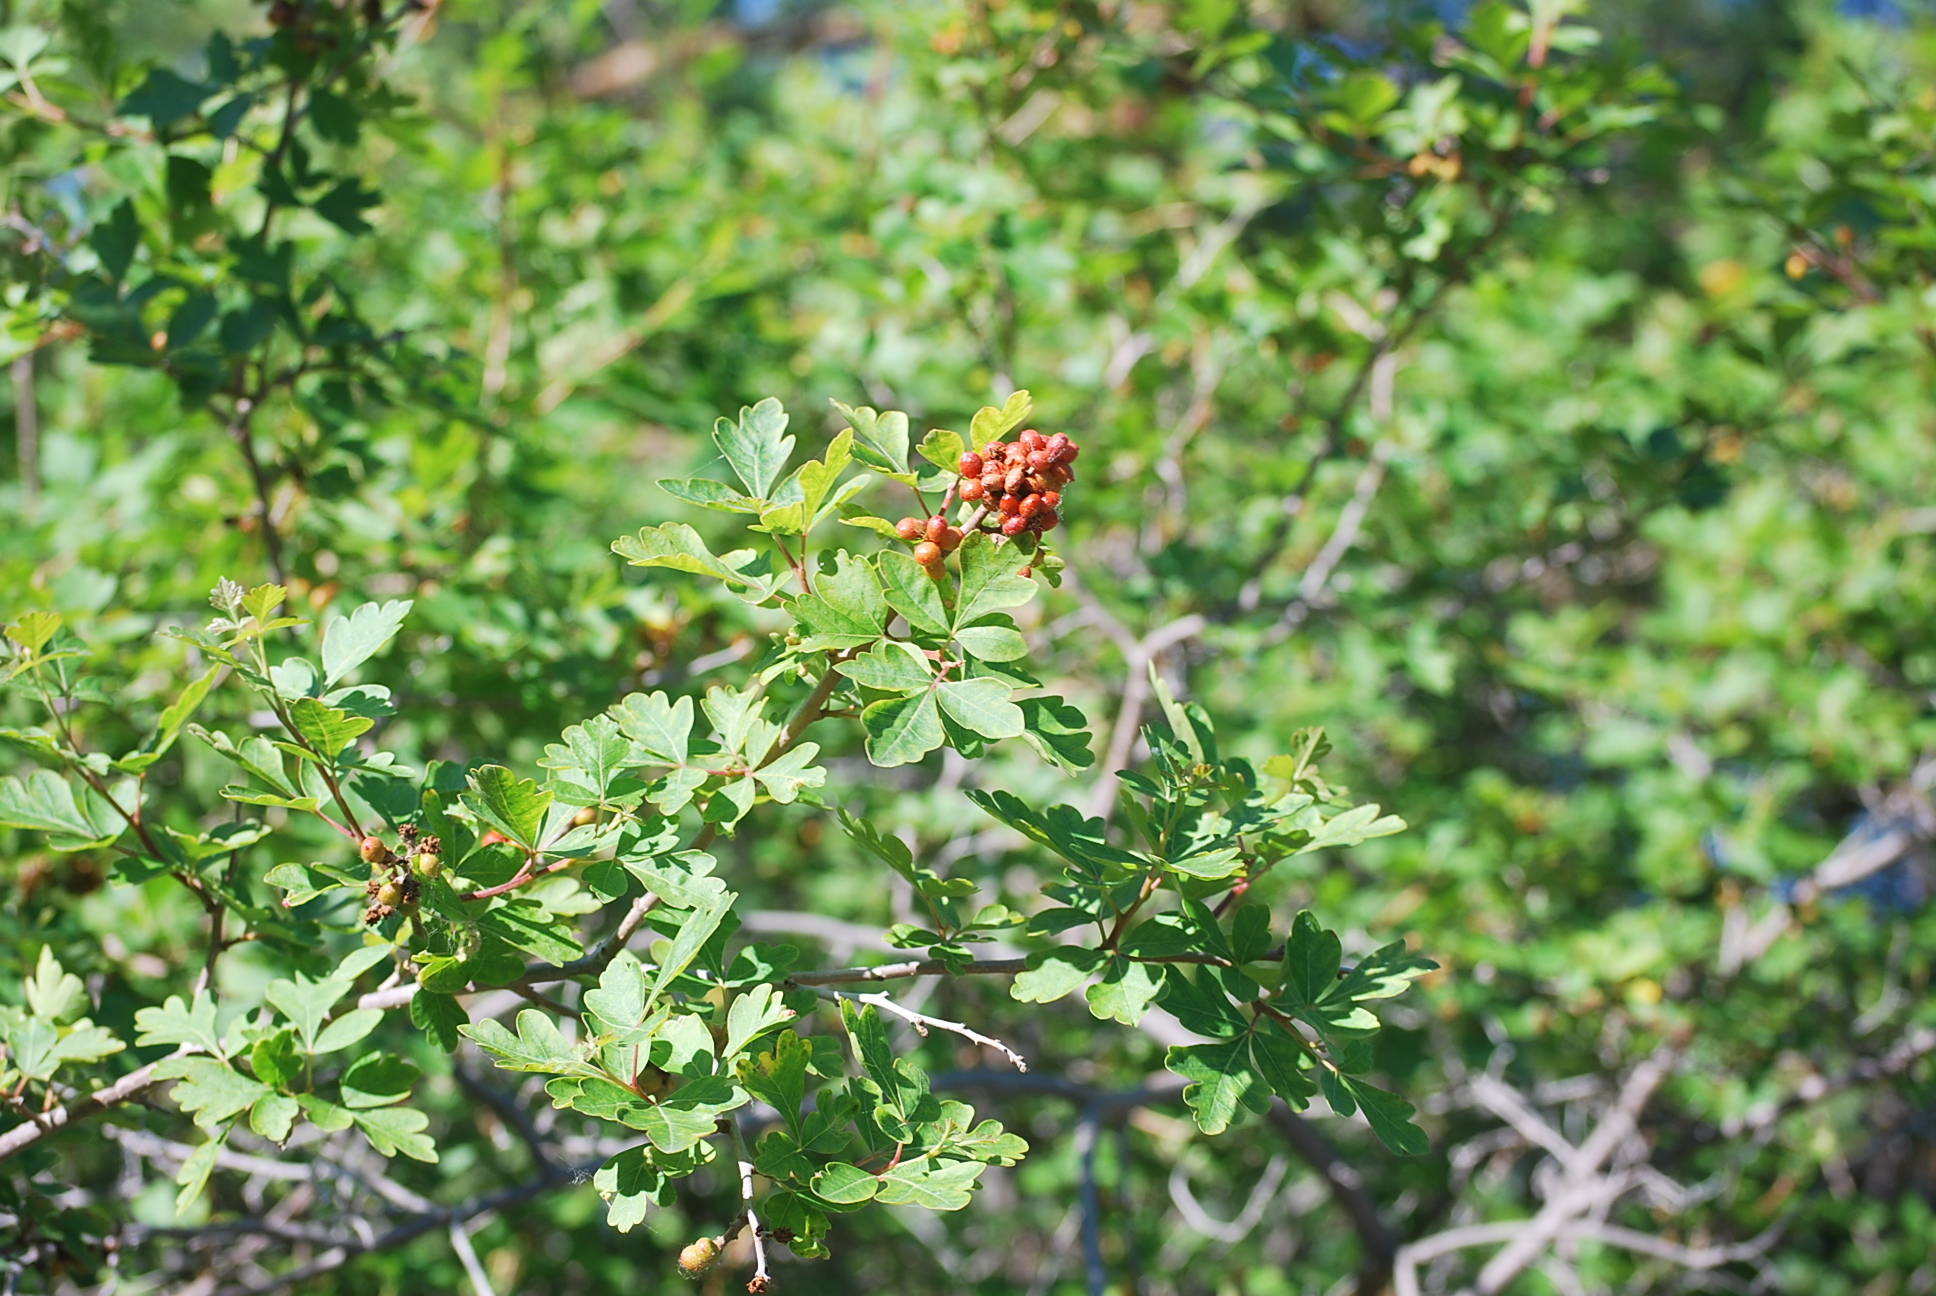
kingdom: Plantae
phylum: Tracheophyta
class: Magnoliopsida
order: Sapindales
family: Anacardiaceae
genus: Rhus
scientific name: Rhus aromatica
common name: Aromatic sumac
